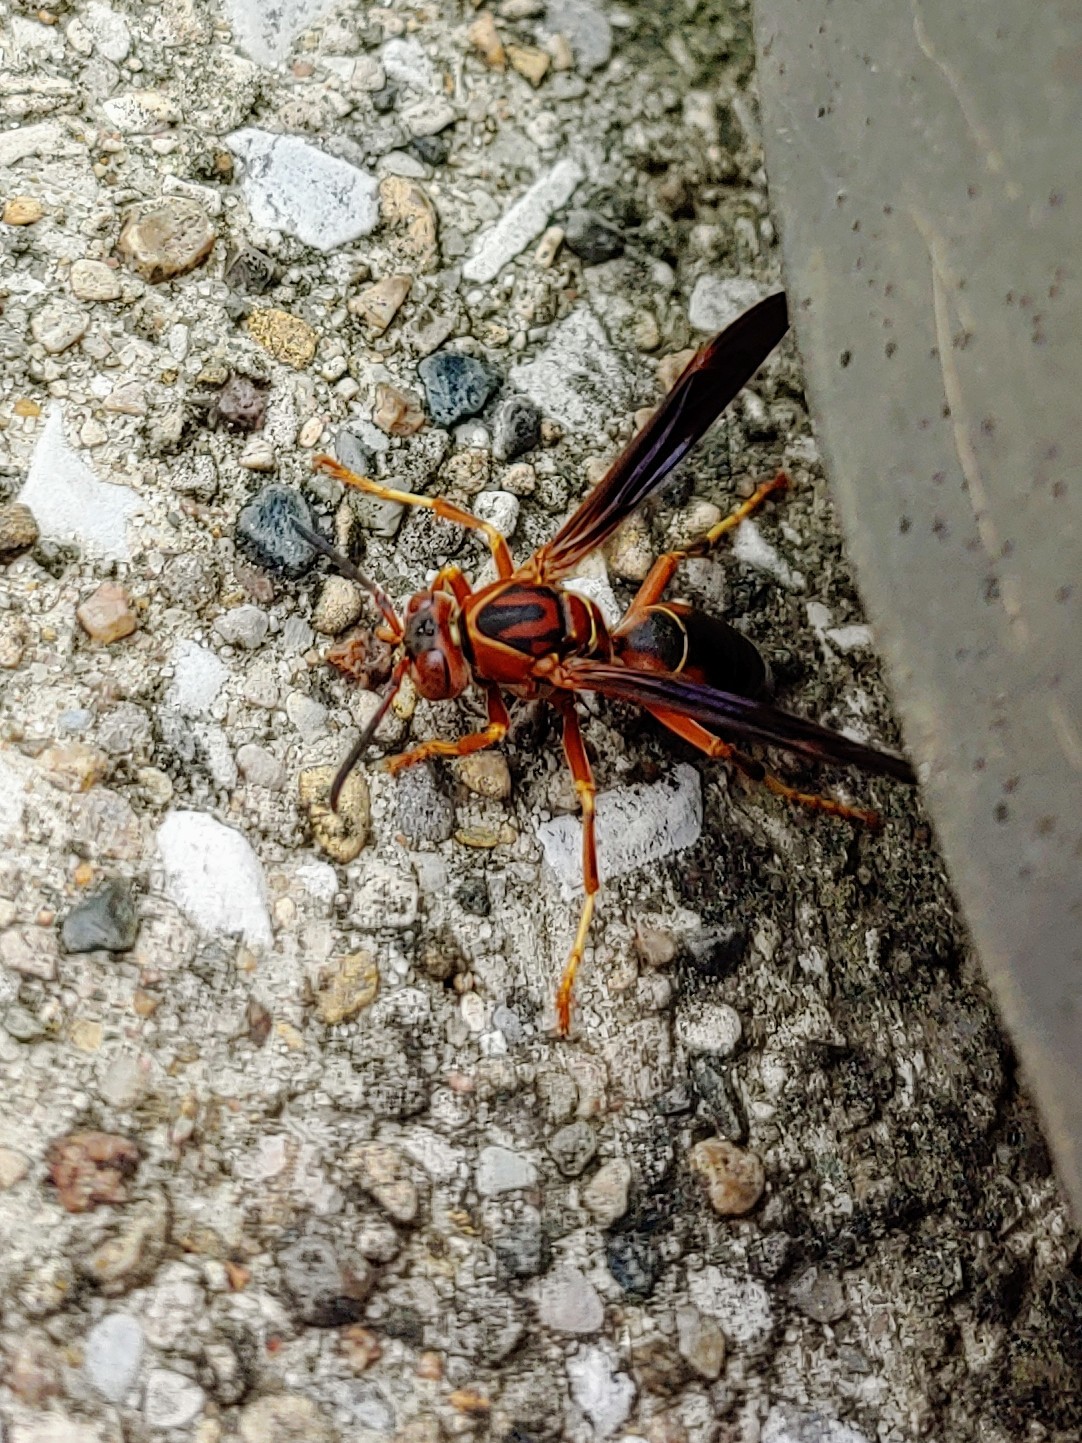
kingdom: Animalia
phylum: Arthropoda
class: Insecta
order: Hymenoptera
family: Vespidae
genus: Fuscopolistes
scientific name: Fuscopolistes
